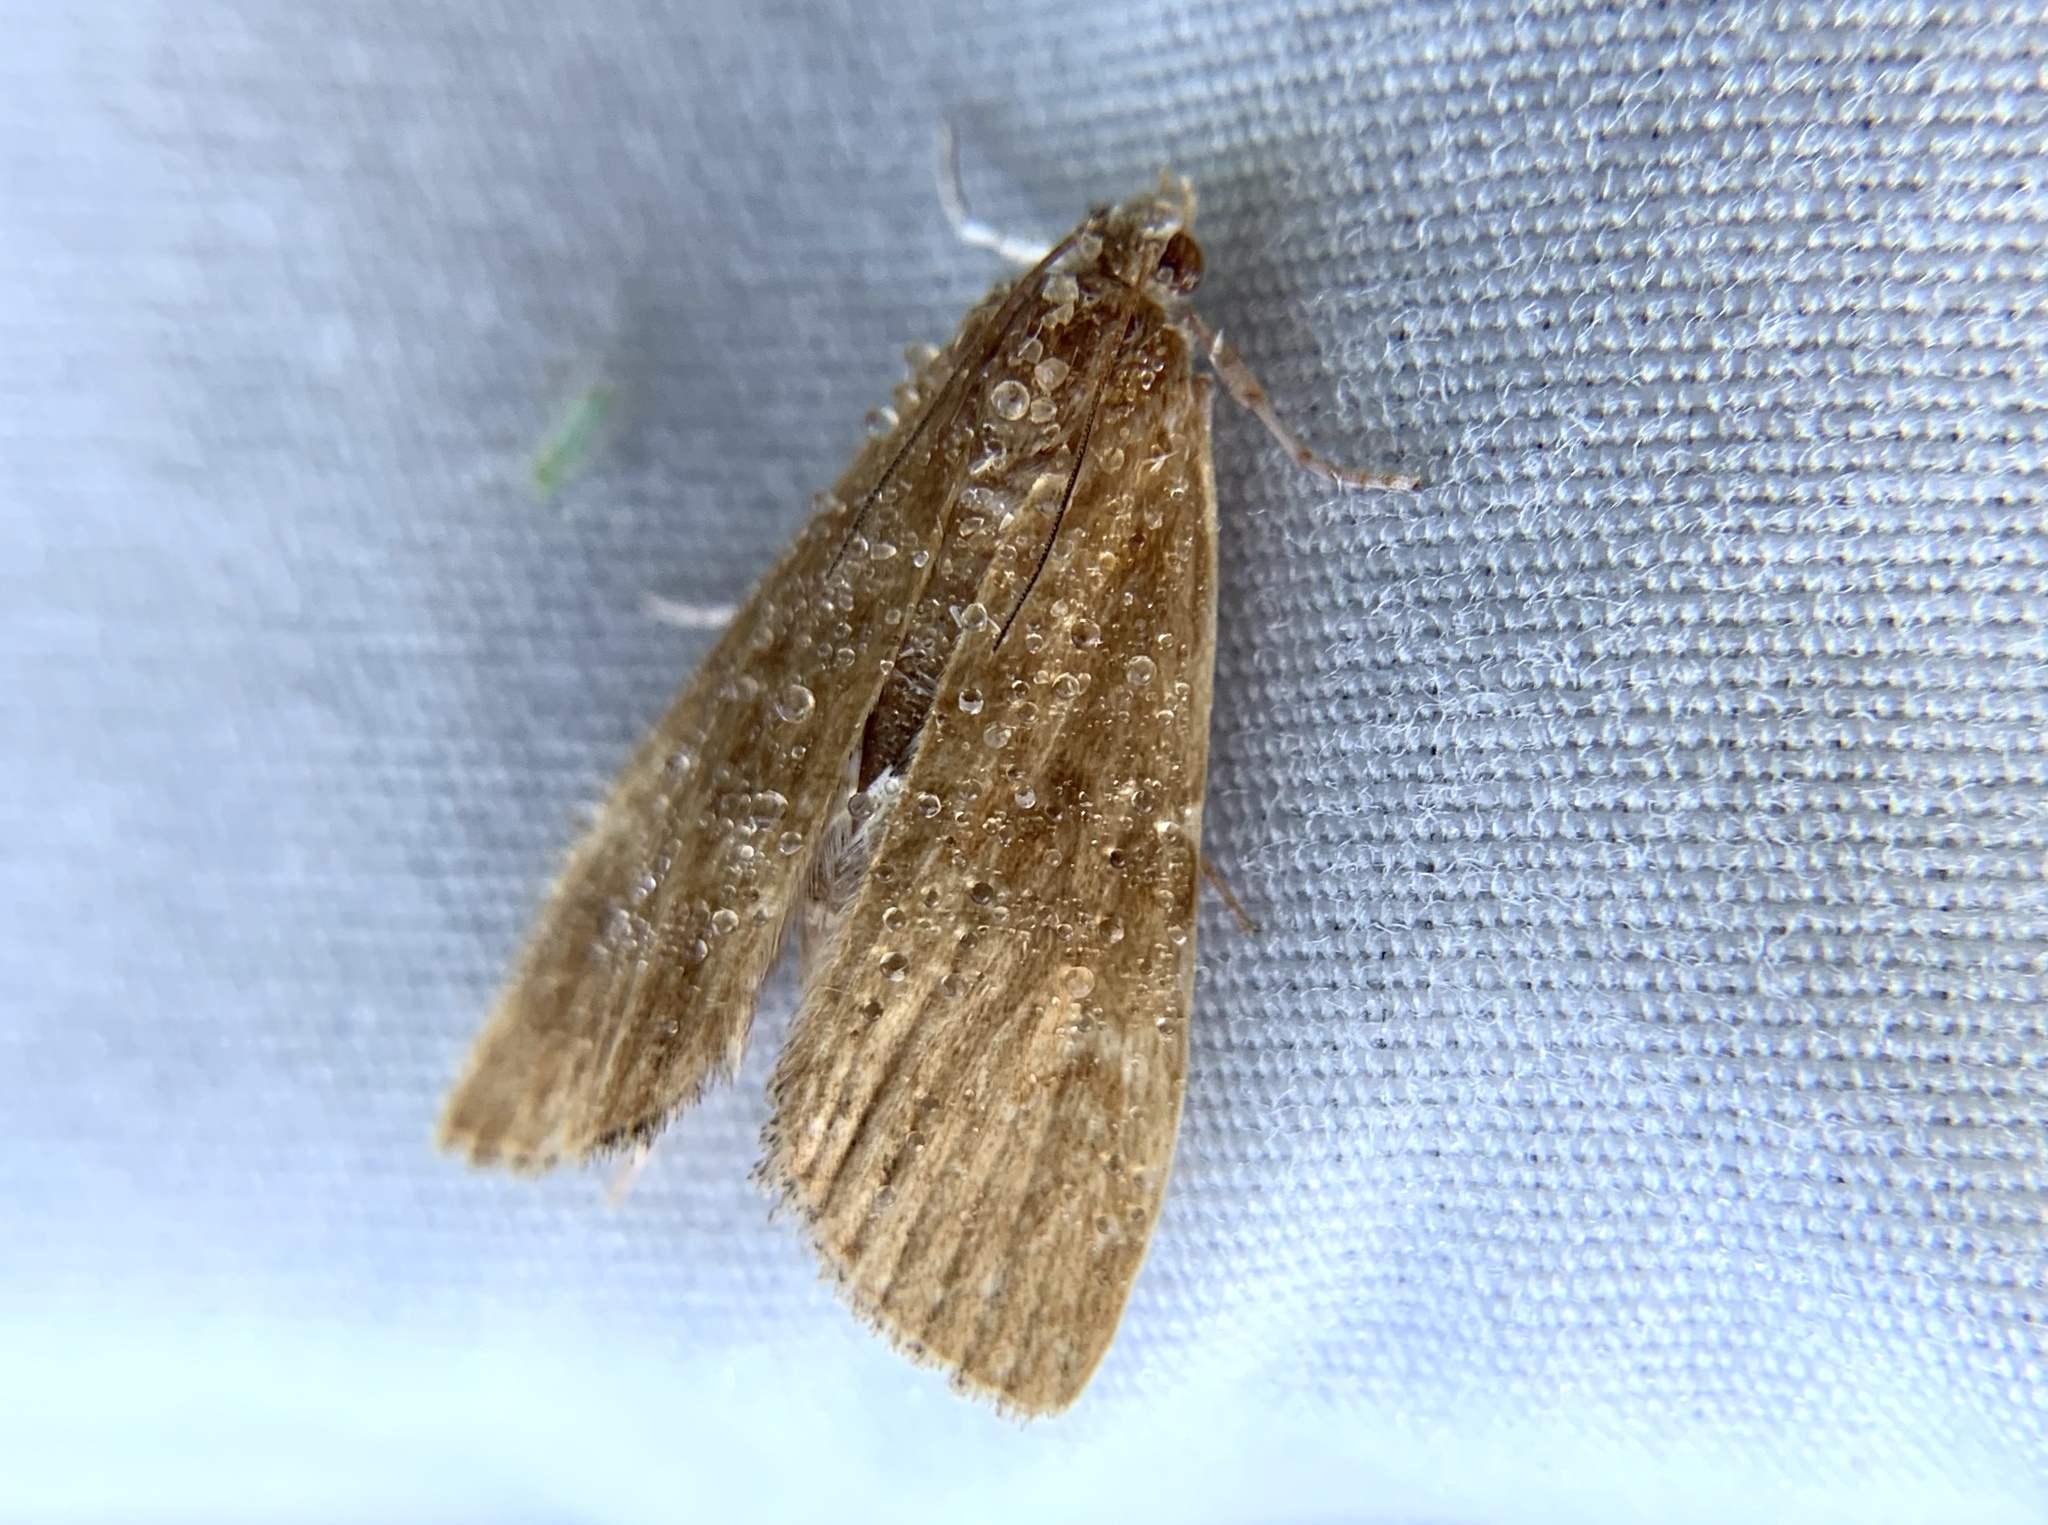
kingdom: Animalia
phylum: Arthropoda
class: Insecta
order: Lepidoptera
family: Crambidae
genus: Elophila
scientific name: Elophila gyralis
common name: Waterlily borer moth
